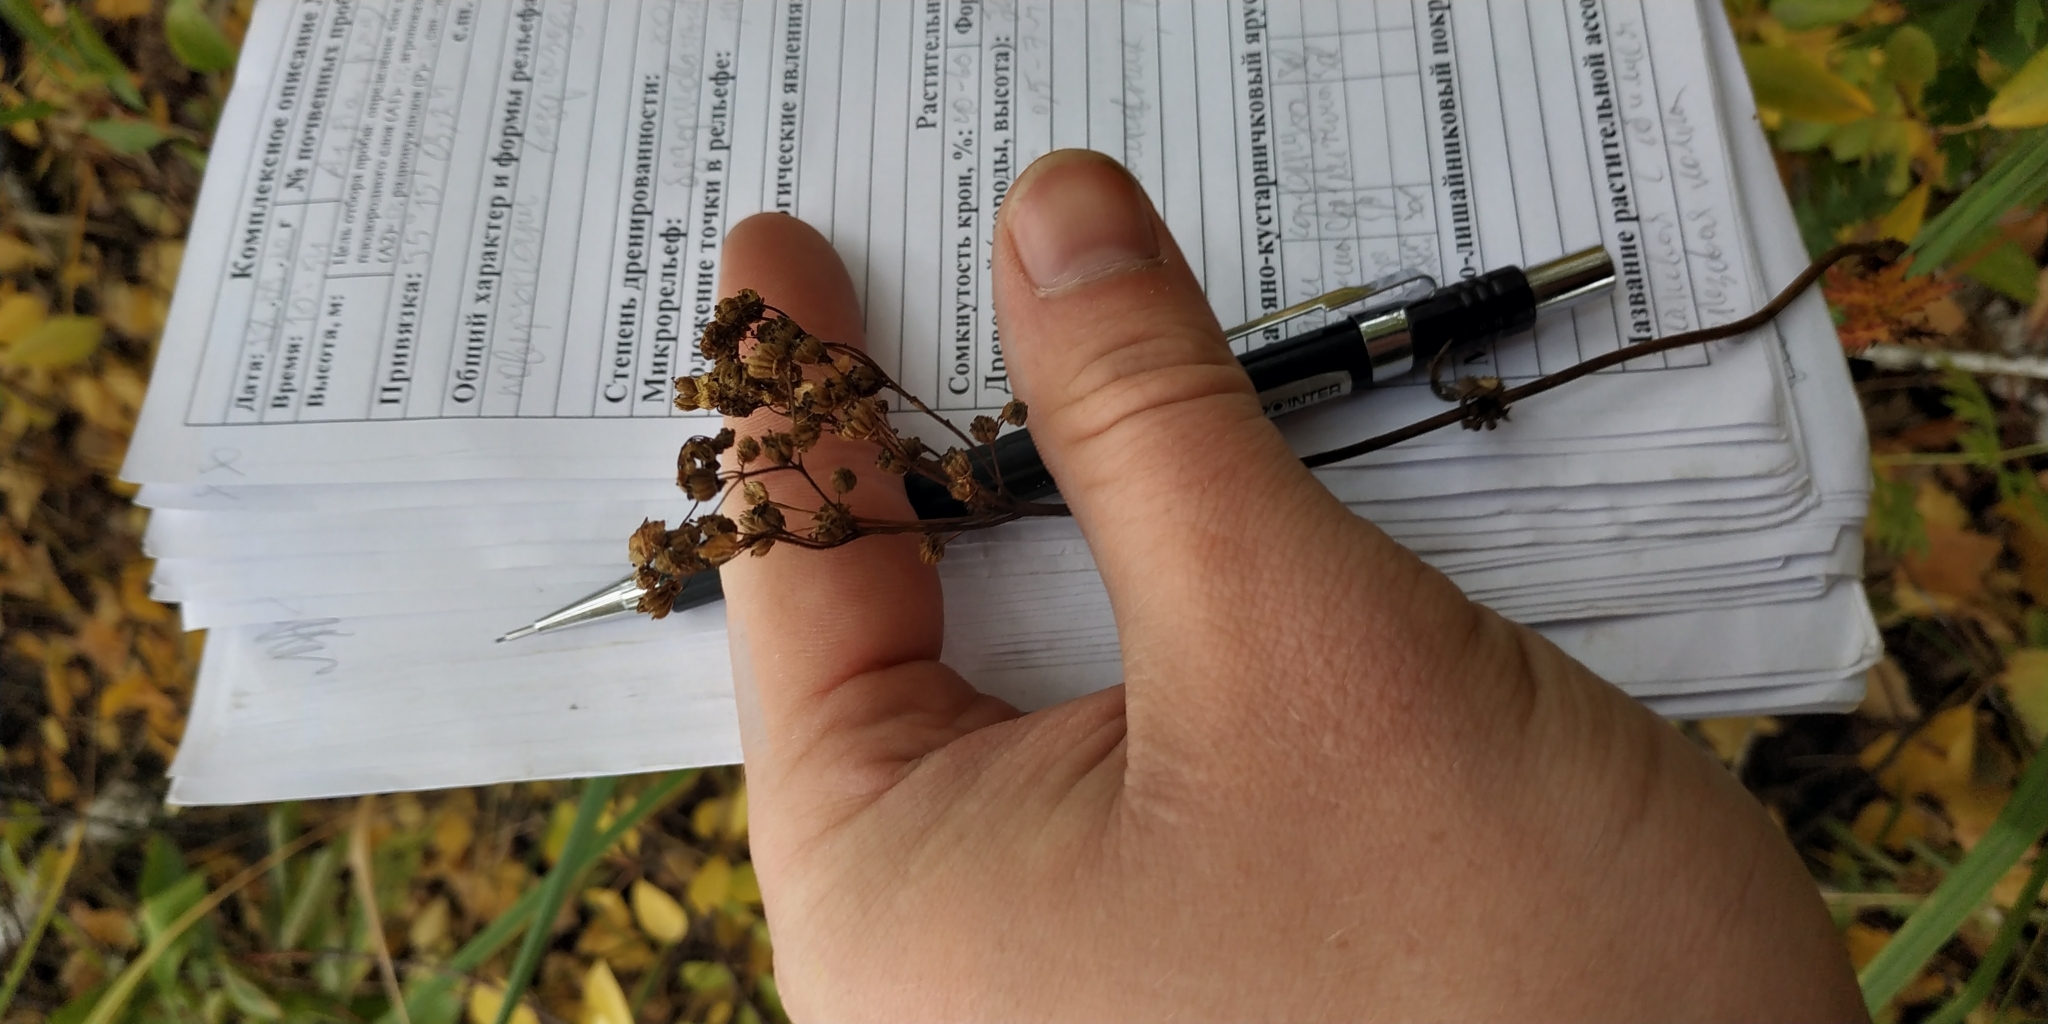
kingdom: Plantae
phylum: Tracheophyta
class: Magnoliopsida
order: Asterales
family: Asteraceae
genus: Tanacetum
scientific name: Tanacetum vulgare
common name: Common tansy
